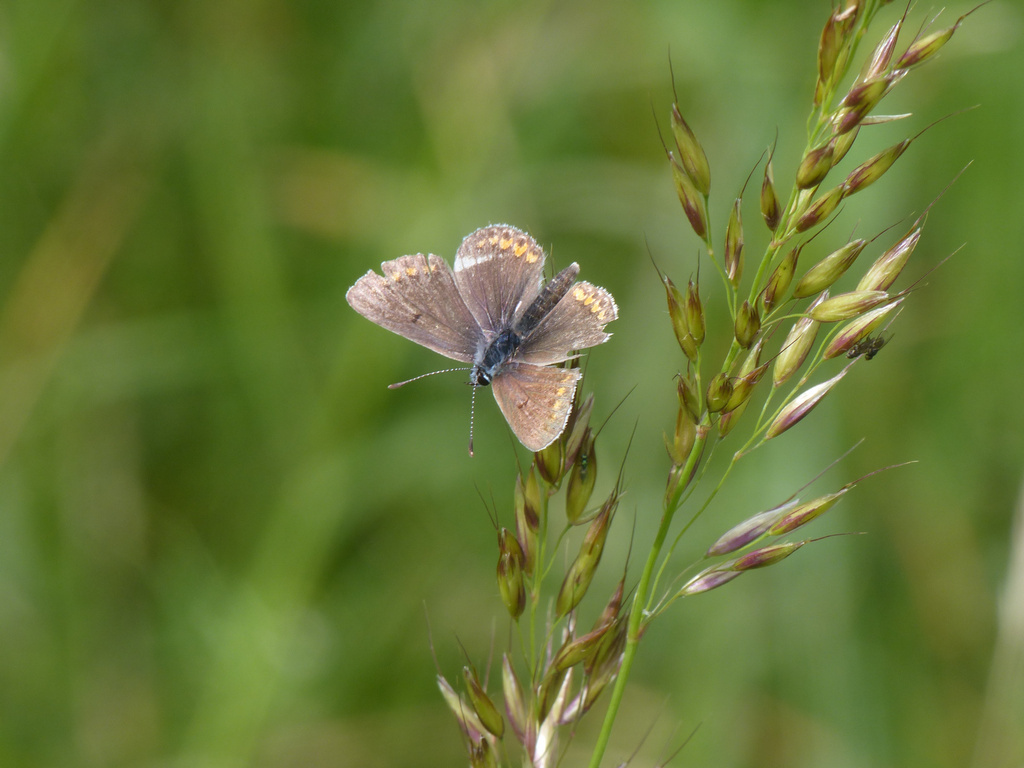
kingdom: Animalia
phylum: Arthropoda
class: Insecta
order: Lepidoptera
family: Lycaenidae
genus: Aricia
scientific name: Aricia agestis
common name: Brown argus
